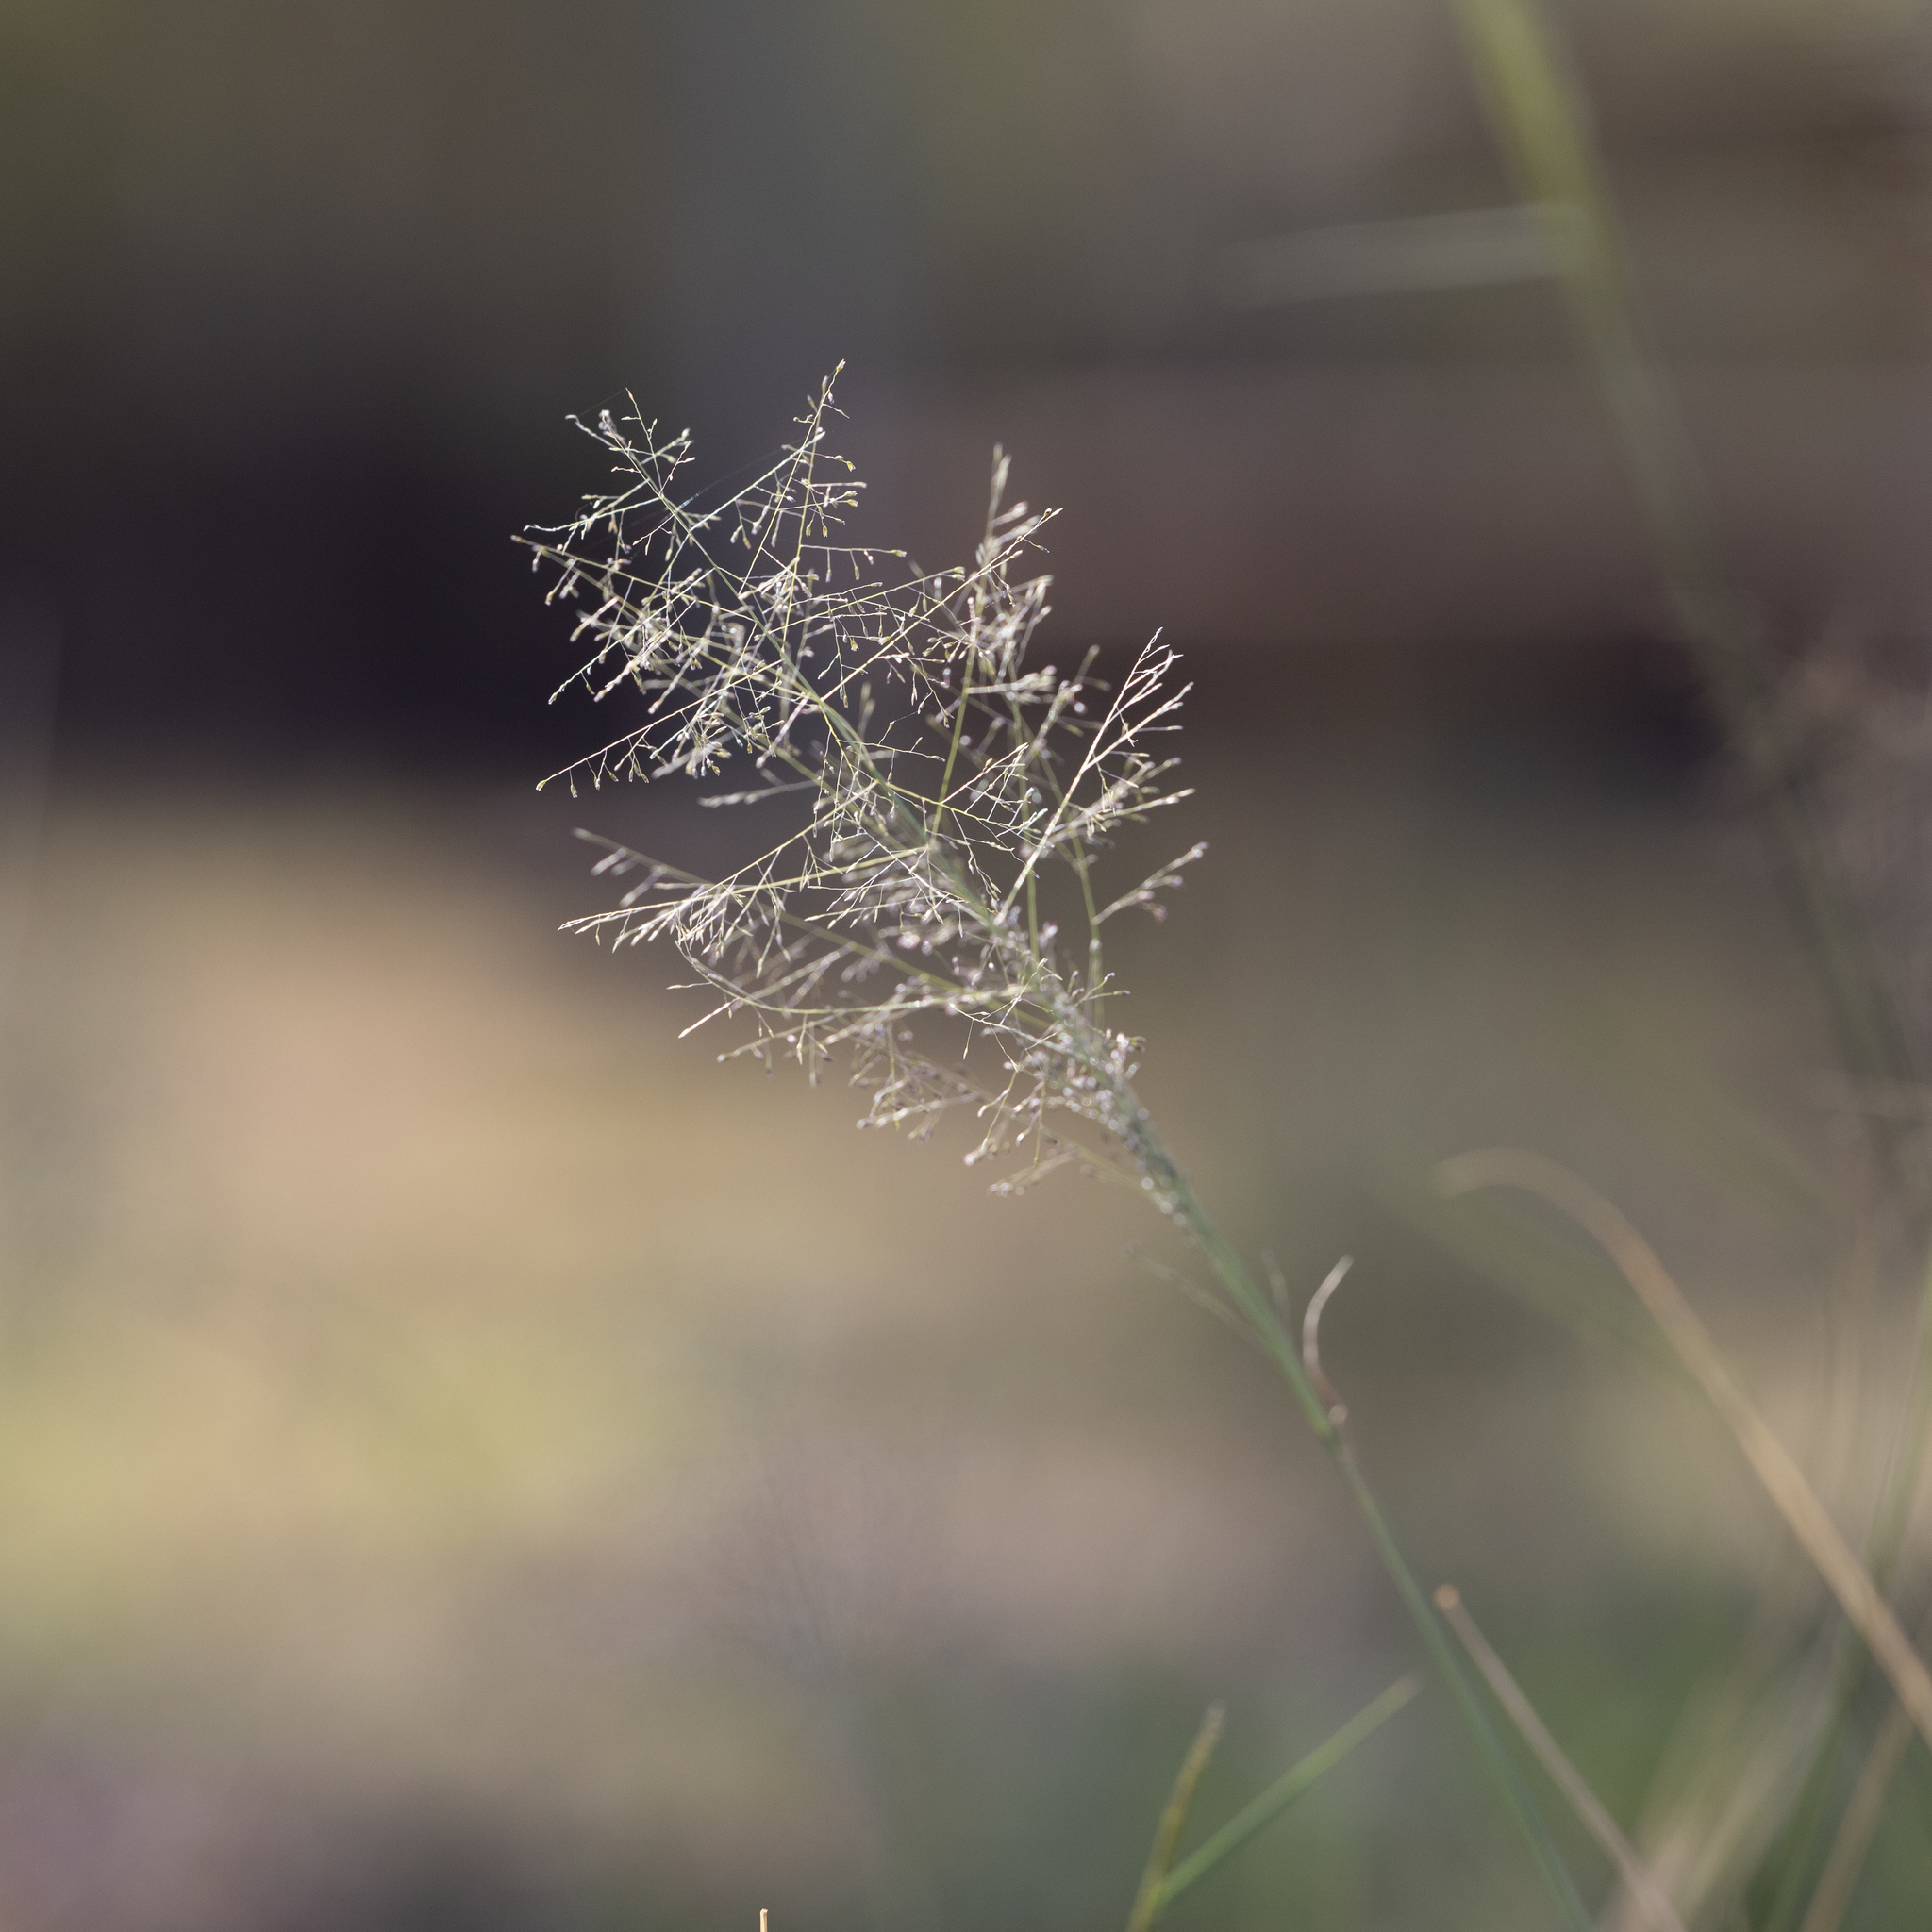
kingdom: Plantae
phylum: Tracheophyta
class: Liliopsida
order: Poales
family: Poaceae
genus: Sporobolus
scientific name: Sporobolus caroli
